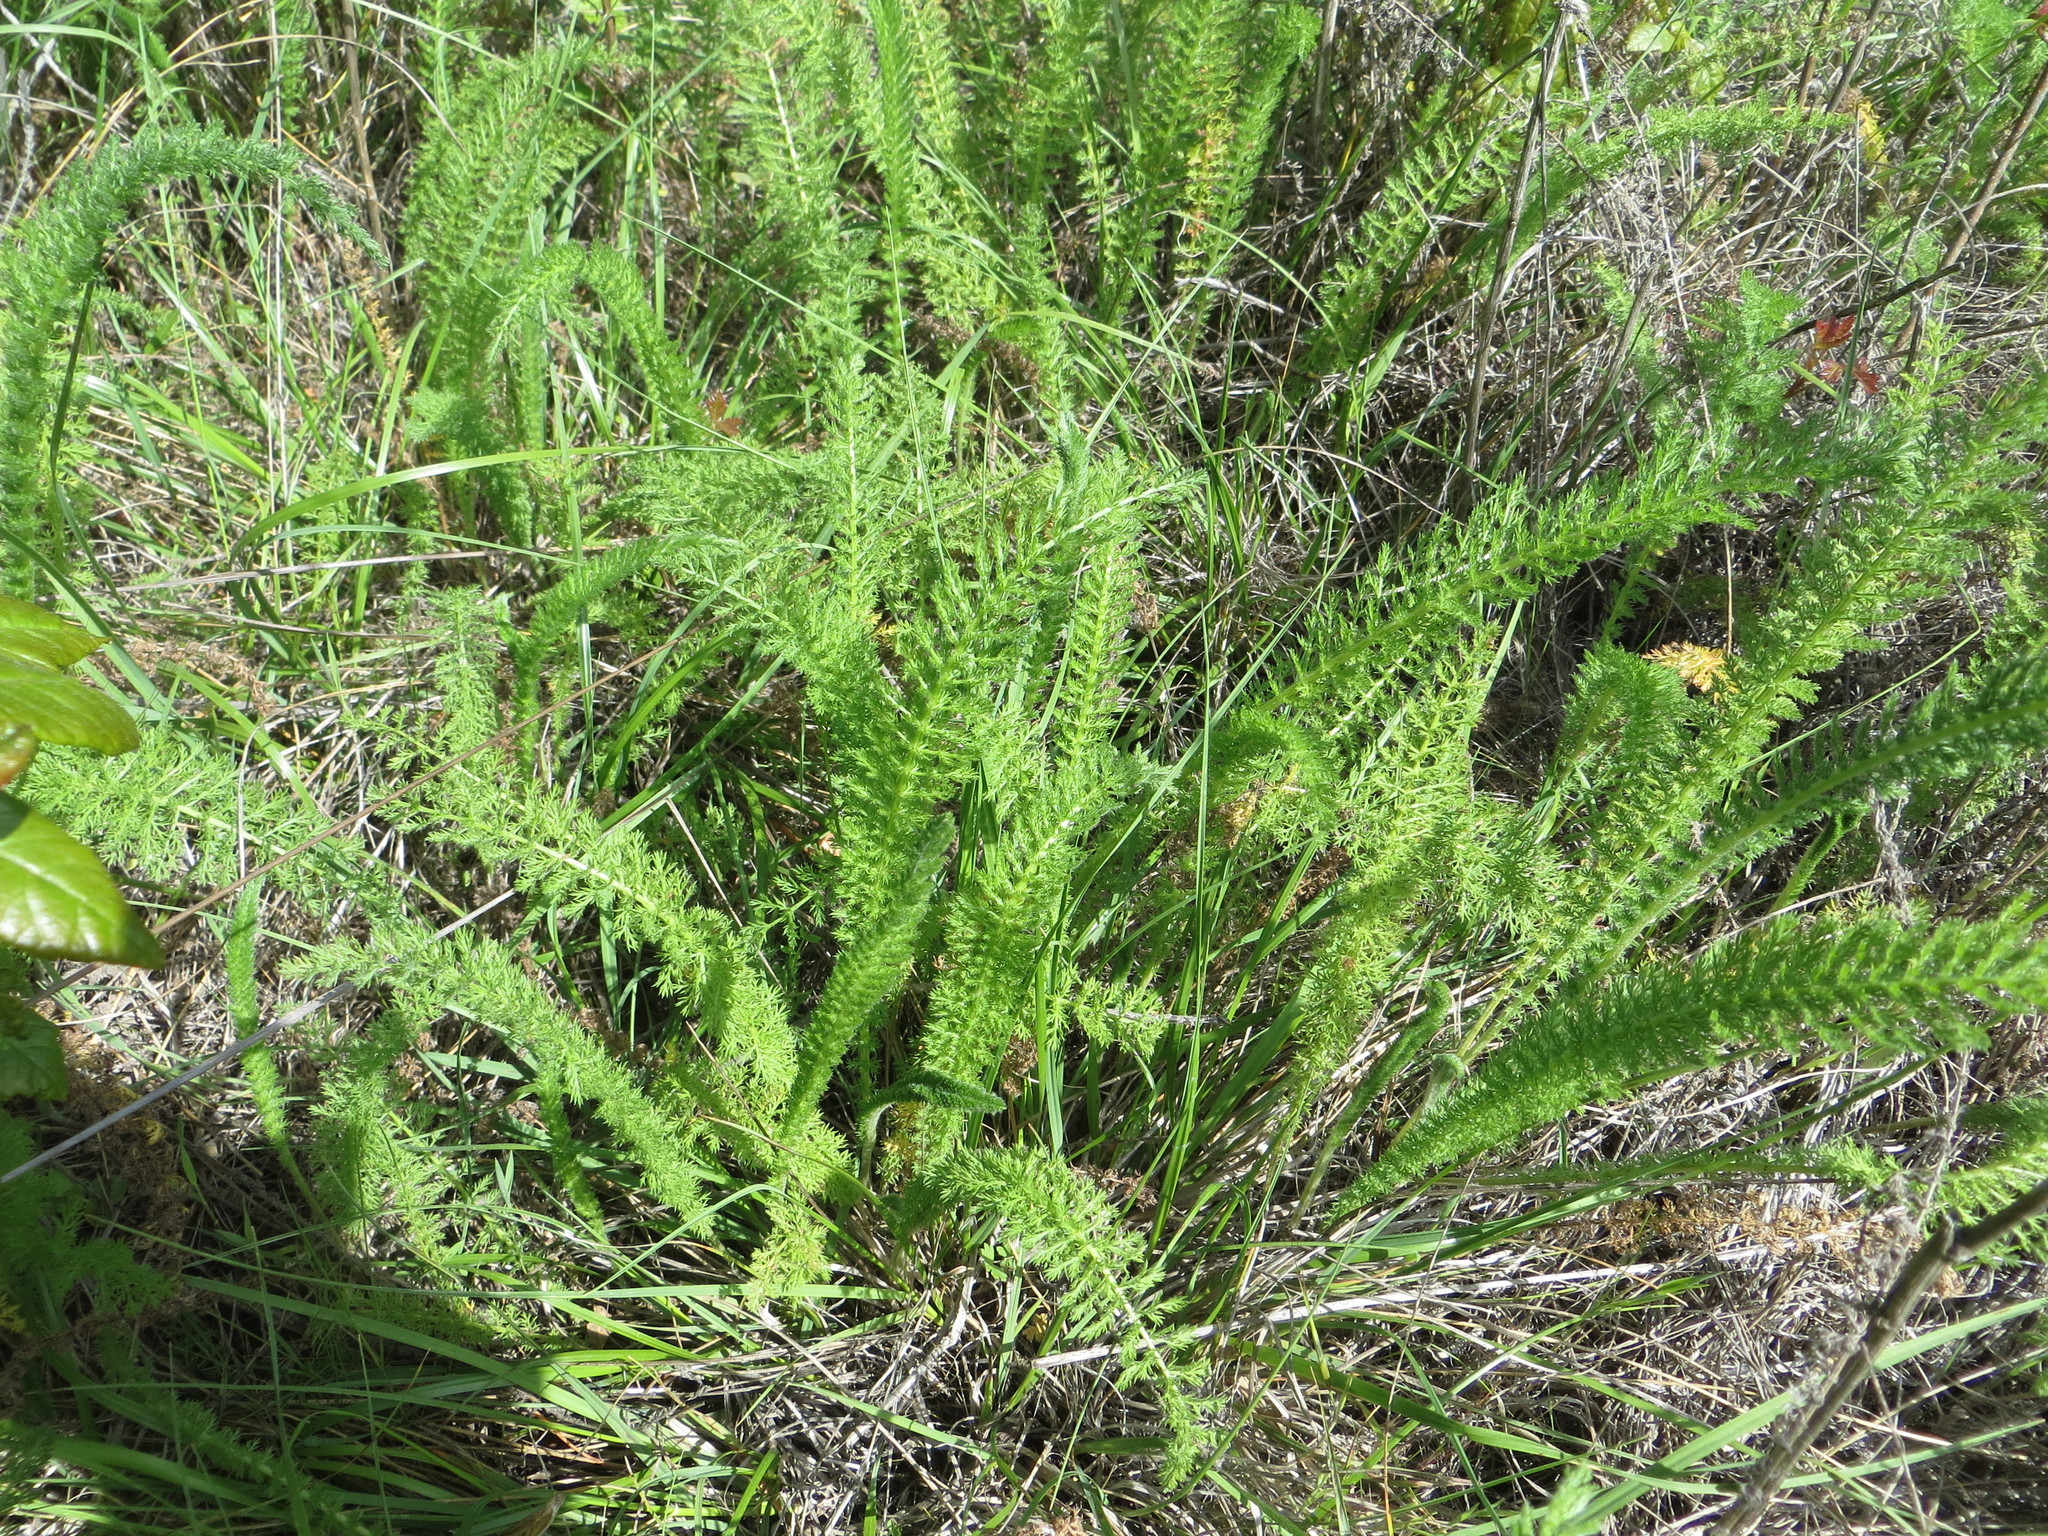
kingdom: Plantae
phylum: Tracheophyta
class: Magnoliopsida
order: Asterales
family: Asteraceae
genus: Achillea
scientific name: Achillea millefolium
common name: Yarrow
